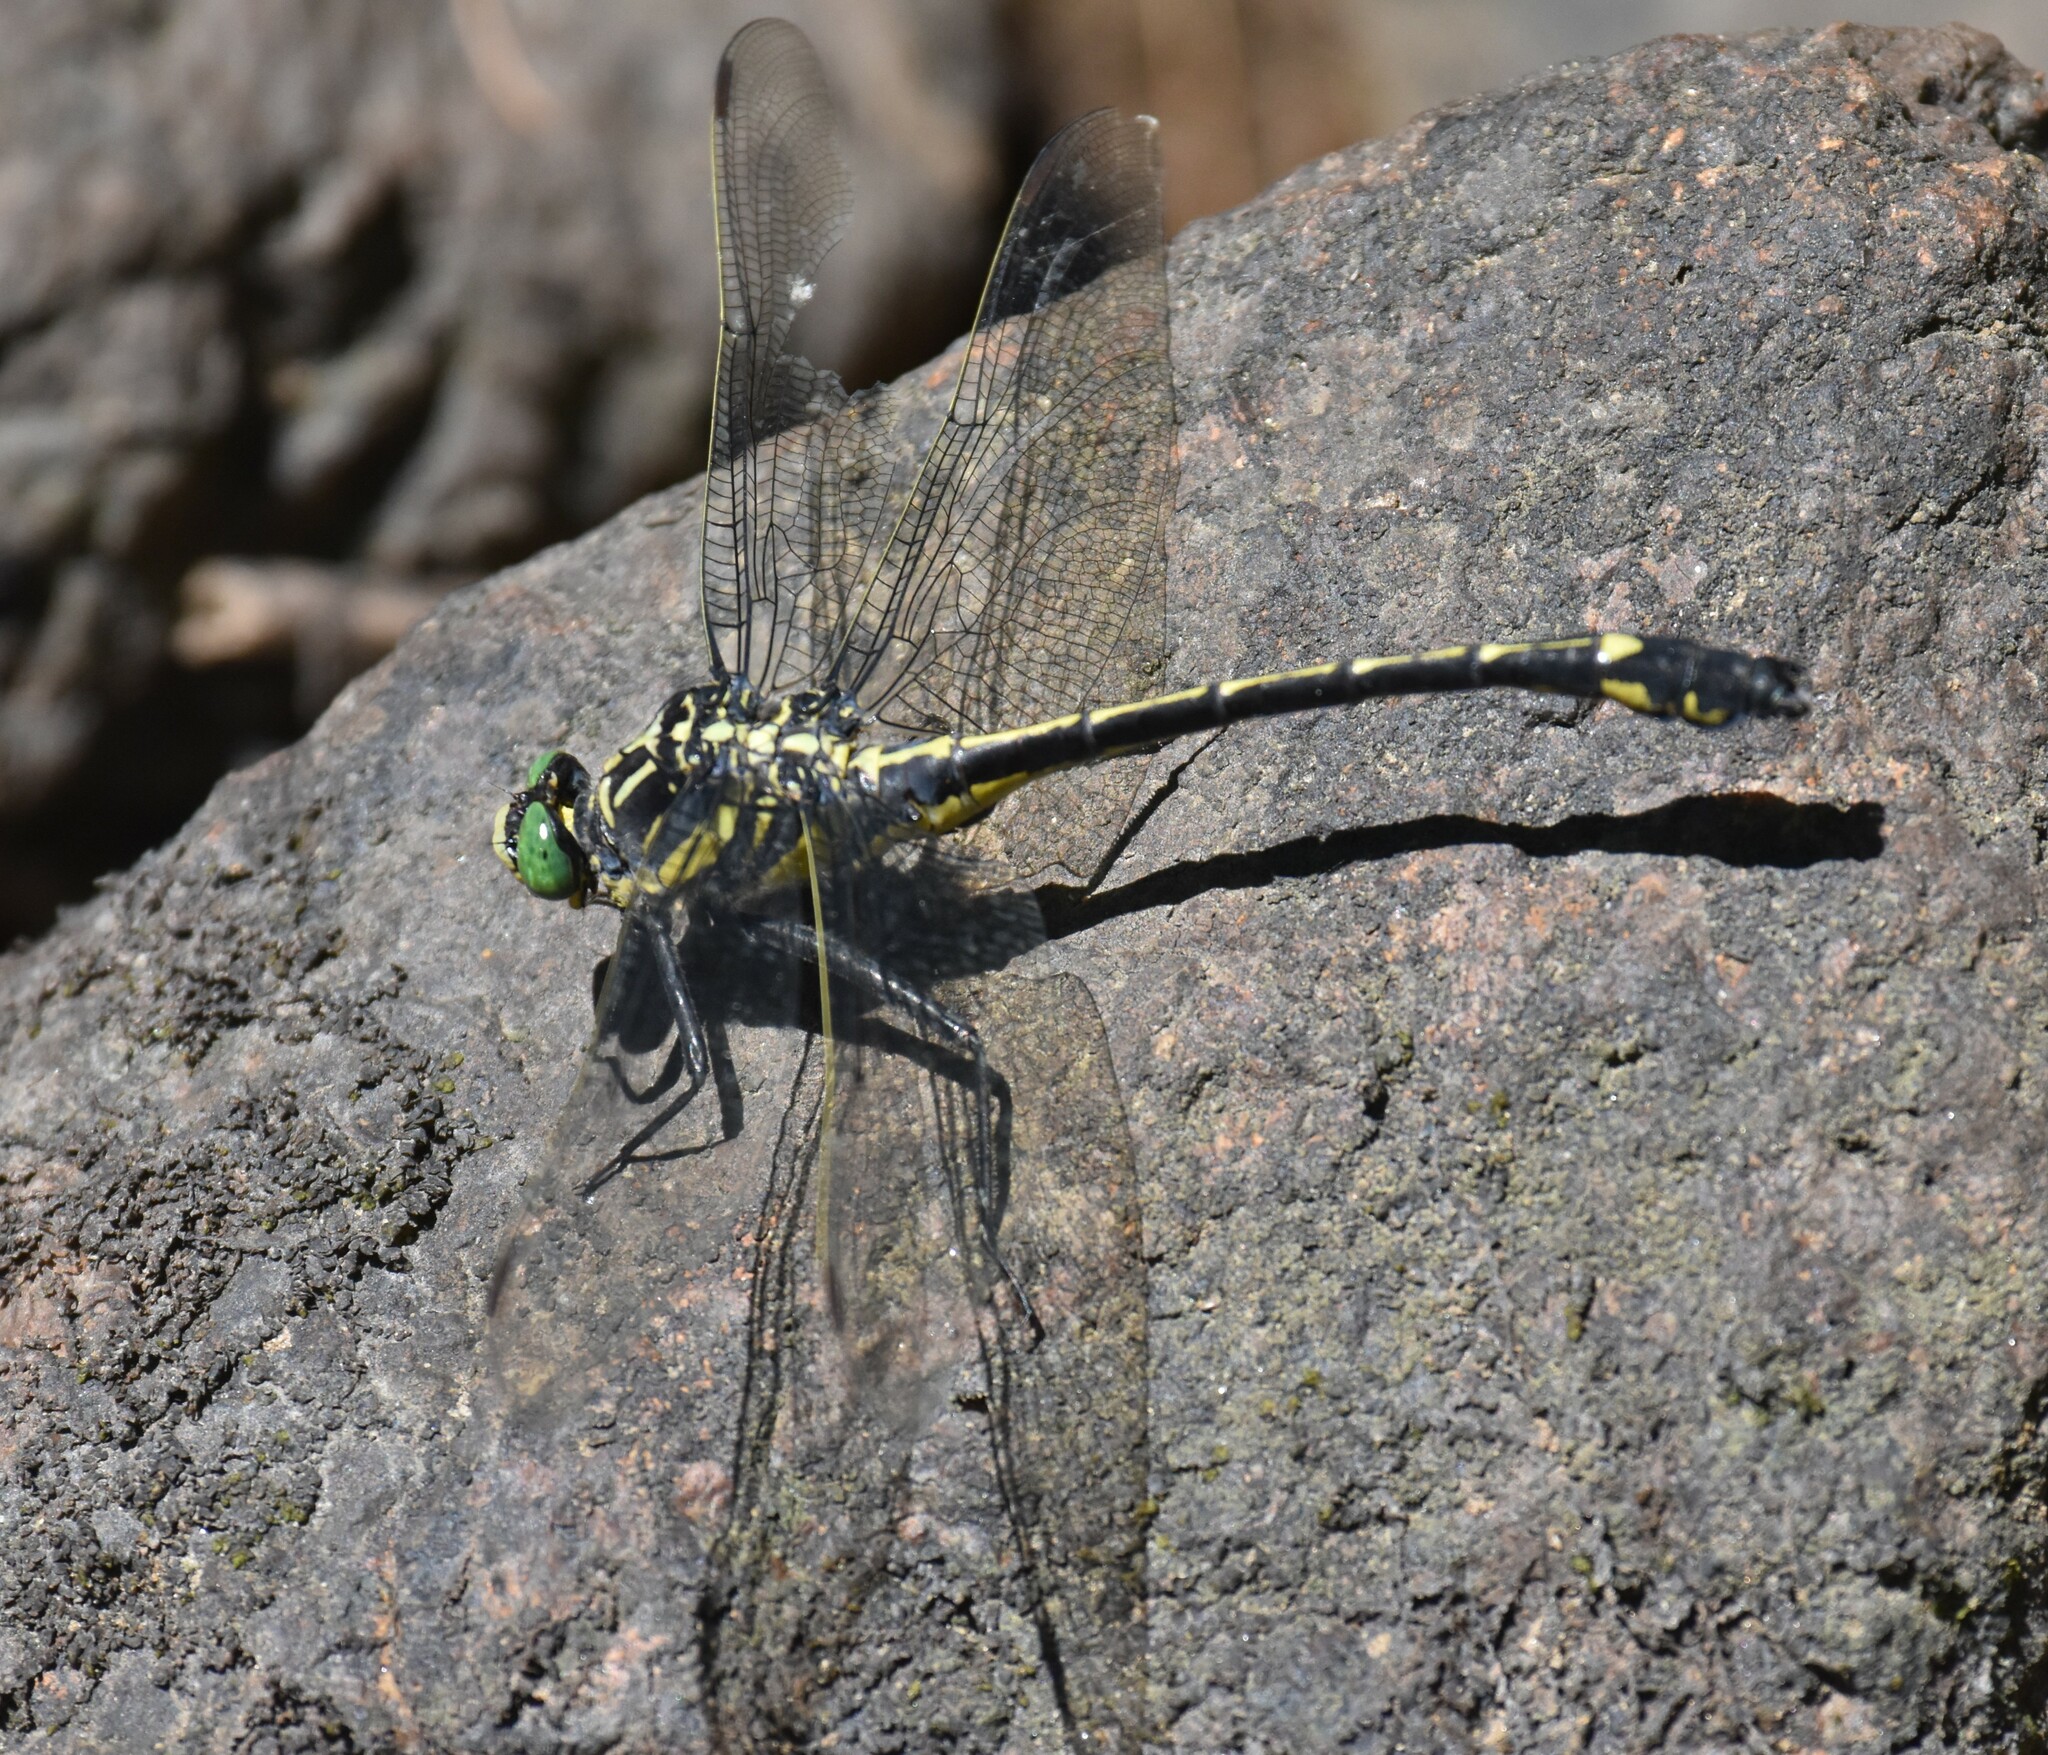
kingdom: Animalia
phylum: Arthropoda
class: Insecta
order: Odonata
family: Gomphidae
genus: Hagenius
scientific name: Hagenius brevistylus
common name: Dragonhunter
